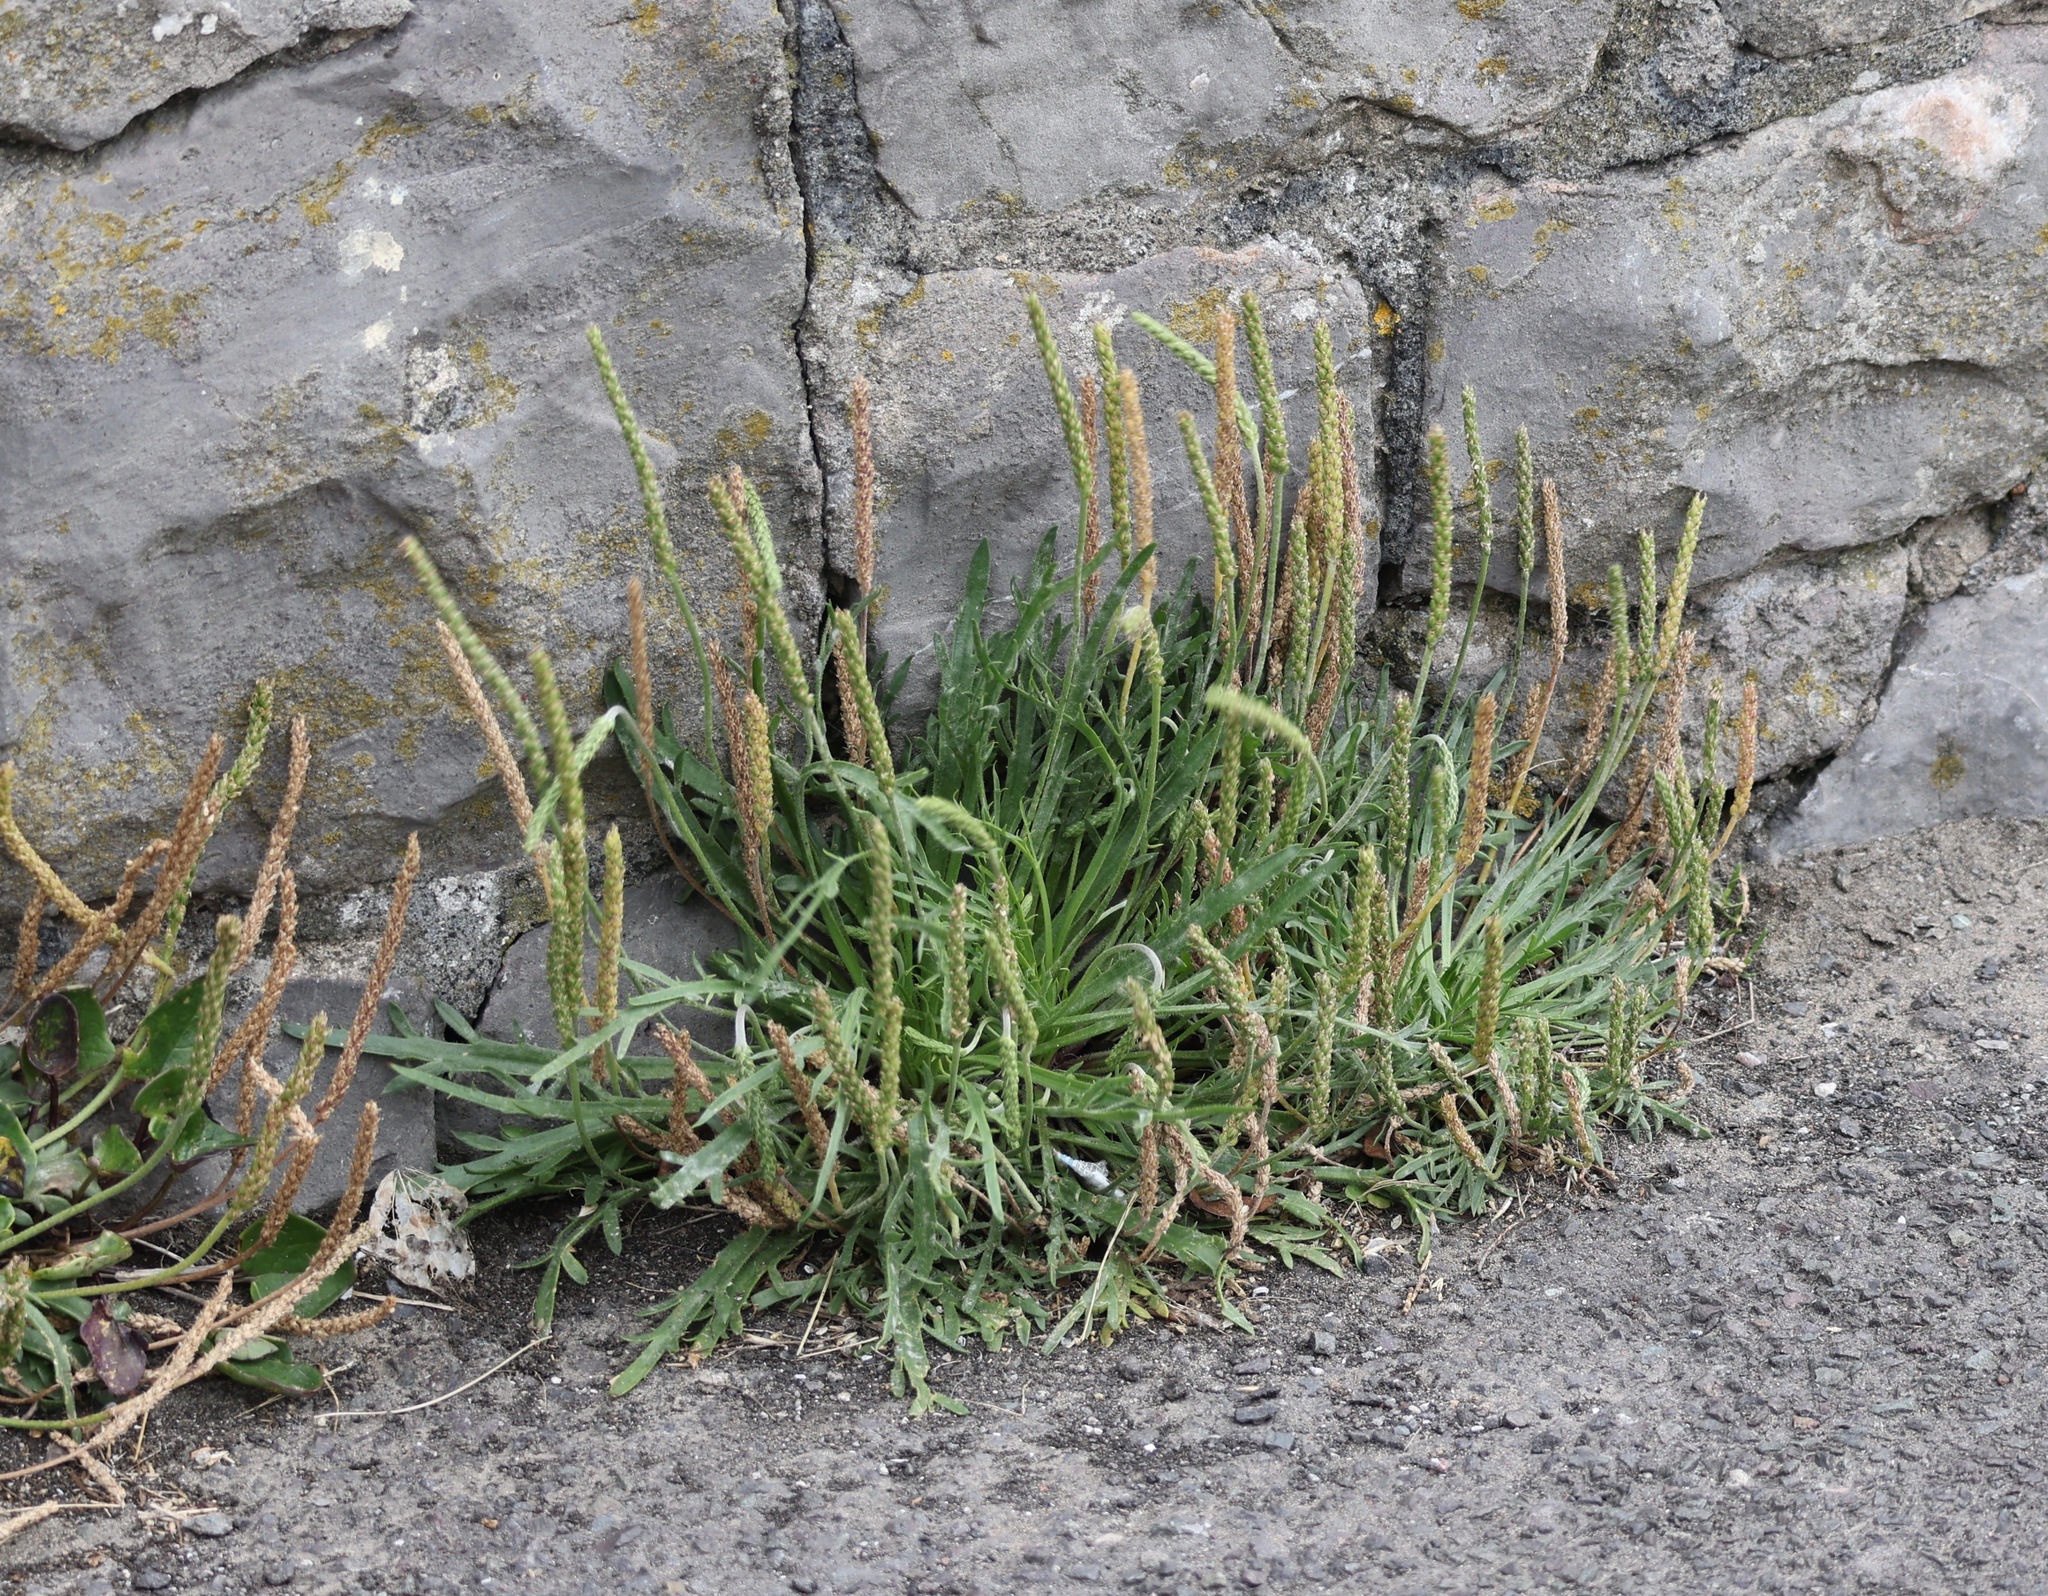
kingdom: Plantae
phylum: Tracheophyta
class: Magnoliopsida
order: Lamiales
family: Plantaginaceae
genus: Plantago
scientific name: Plantago coronopus
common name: Buck's-horn plantain
